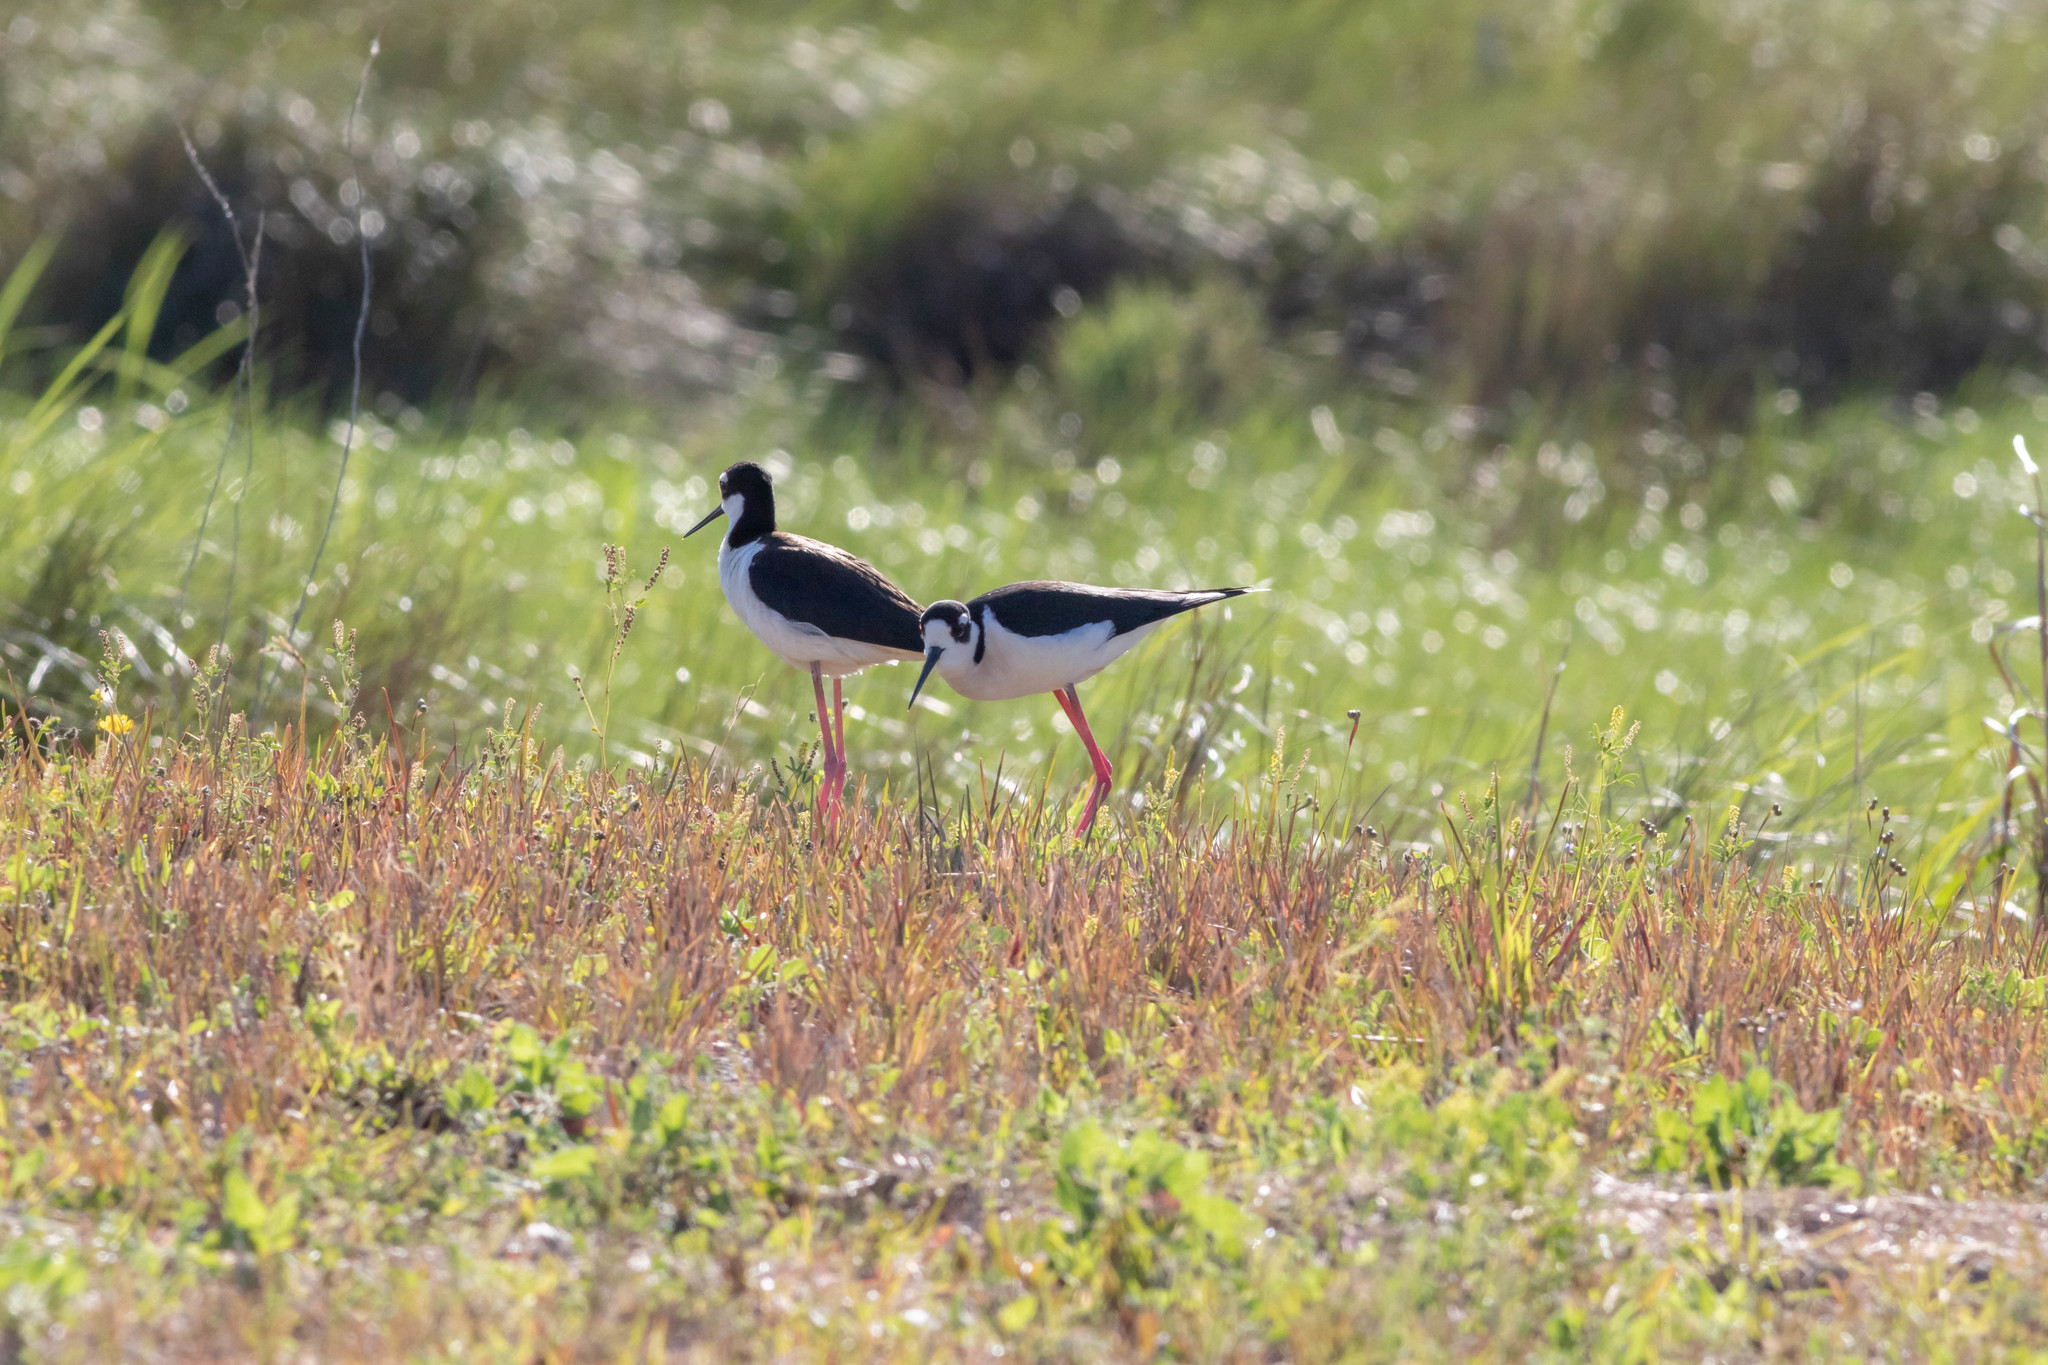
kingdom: Animalia
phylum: Chordata
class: Aves
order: Charadriiformes
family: Recurvirostridae
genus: Himantopus
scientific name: Himantopus mexicanus
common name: Black-necked stilt
